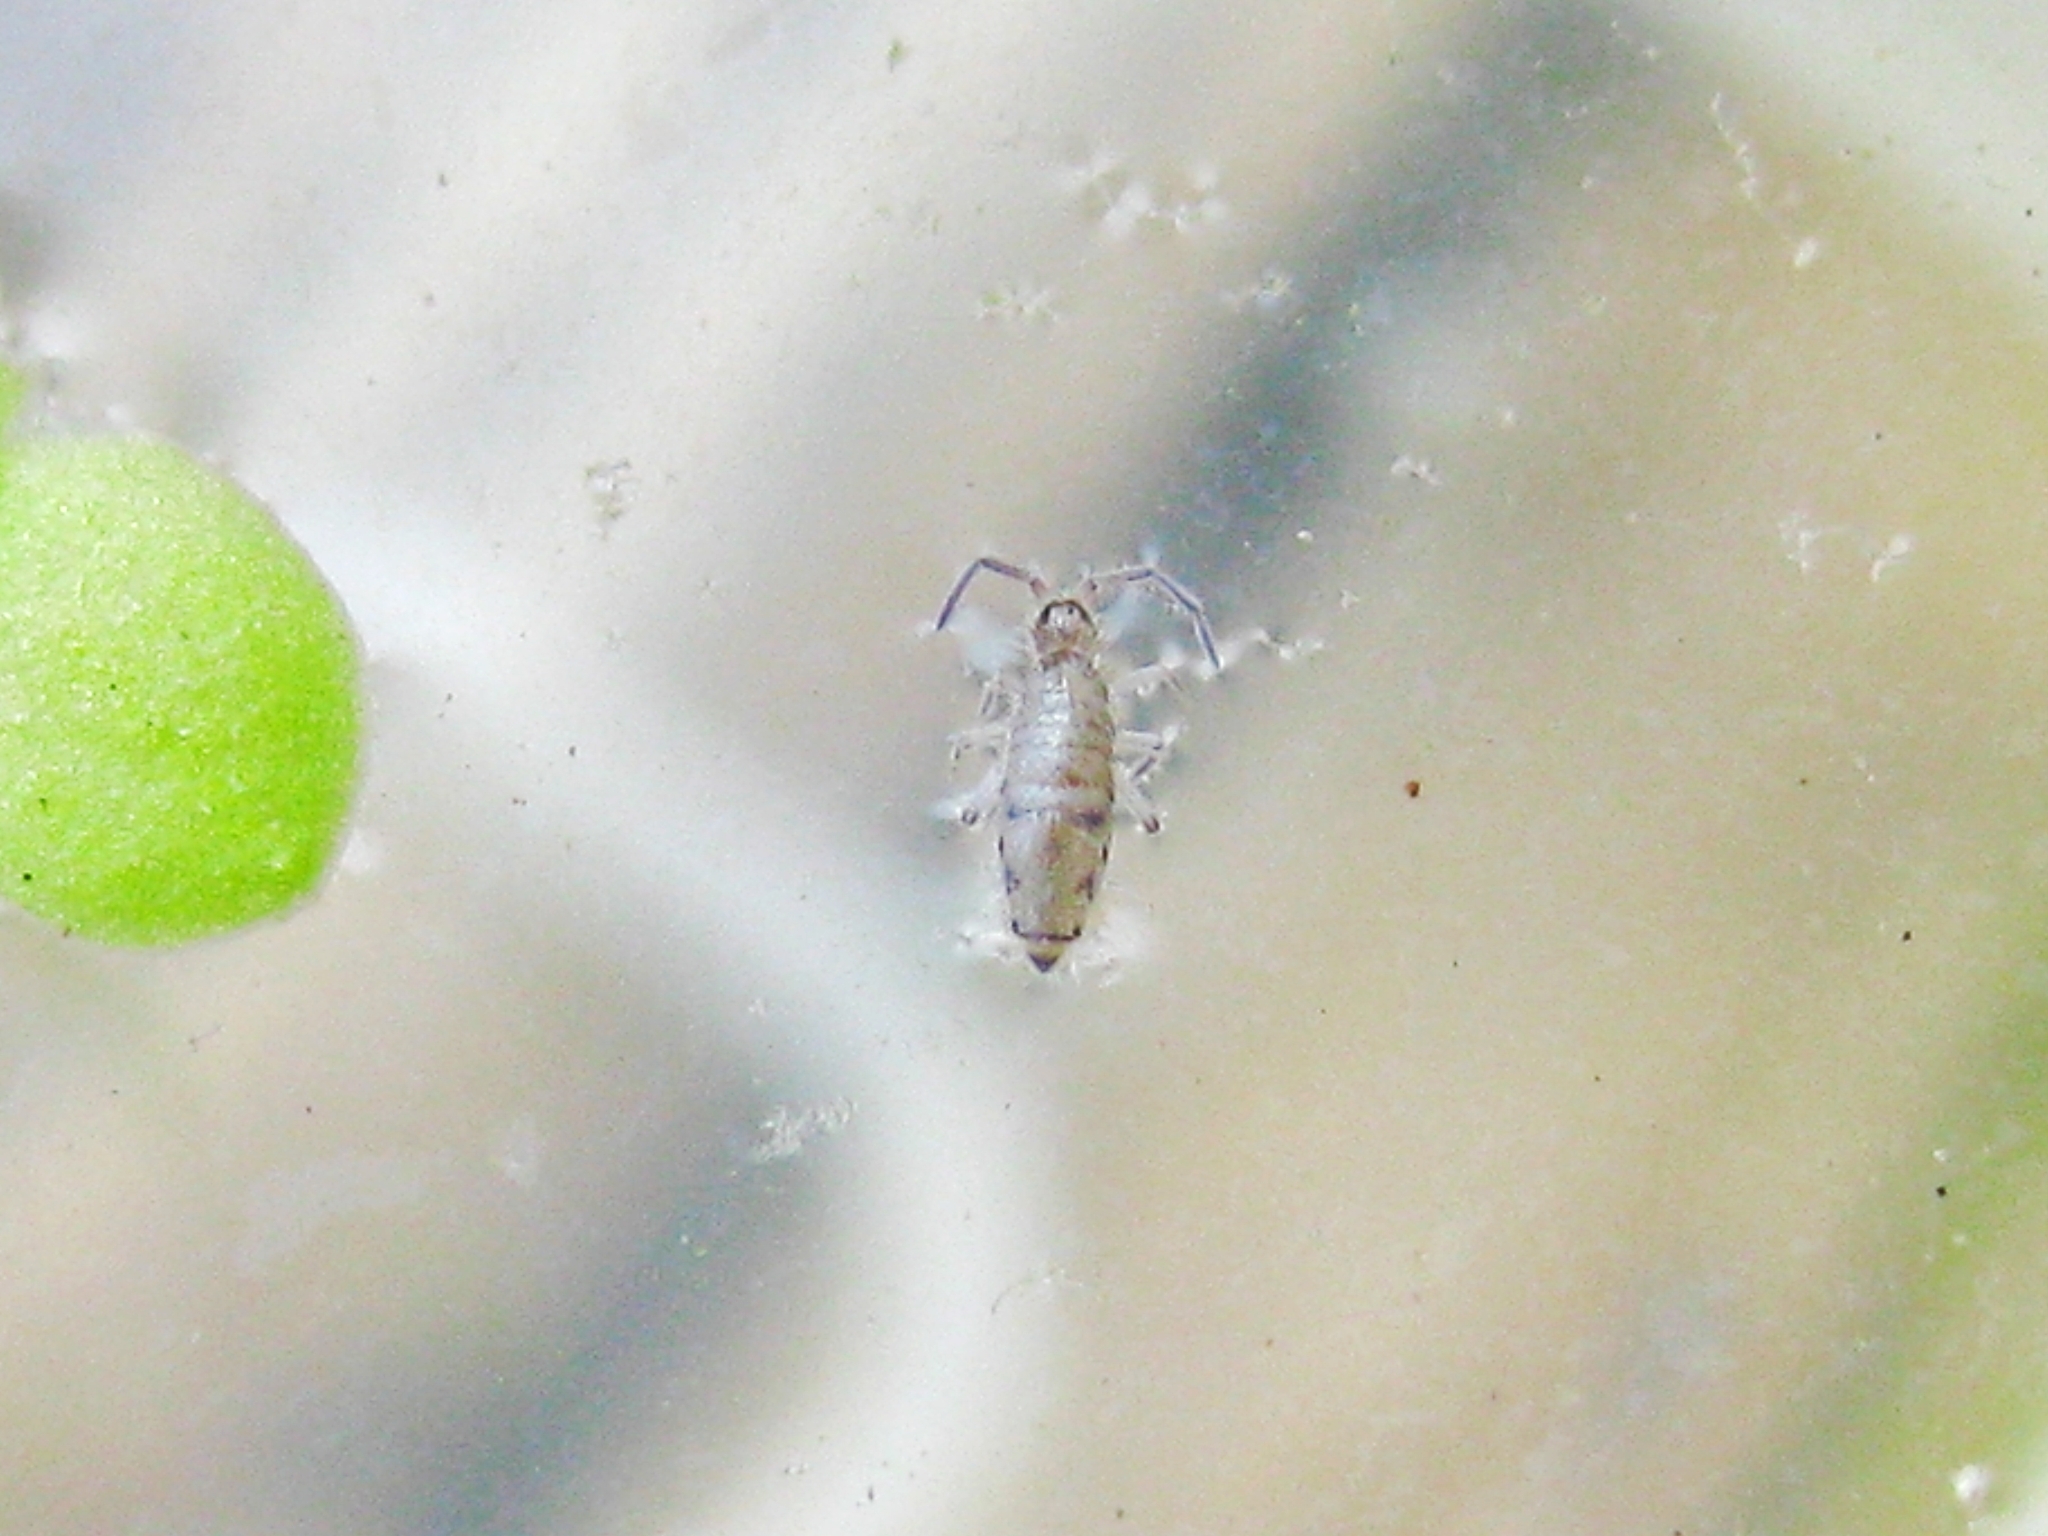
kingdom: Animalia
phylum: Arthropoda
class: Collembola
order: Entomobryomorpha
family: Entomobryidae
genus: Willowsia
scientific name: Willowsia nigromaculata
